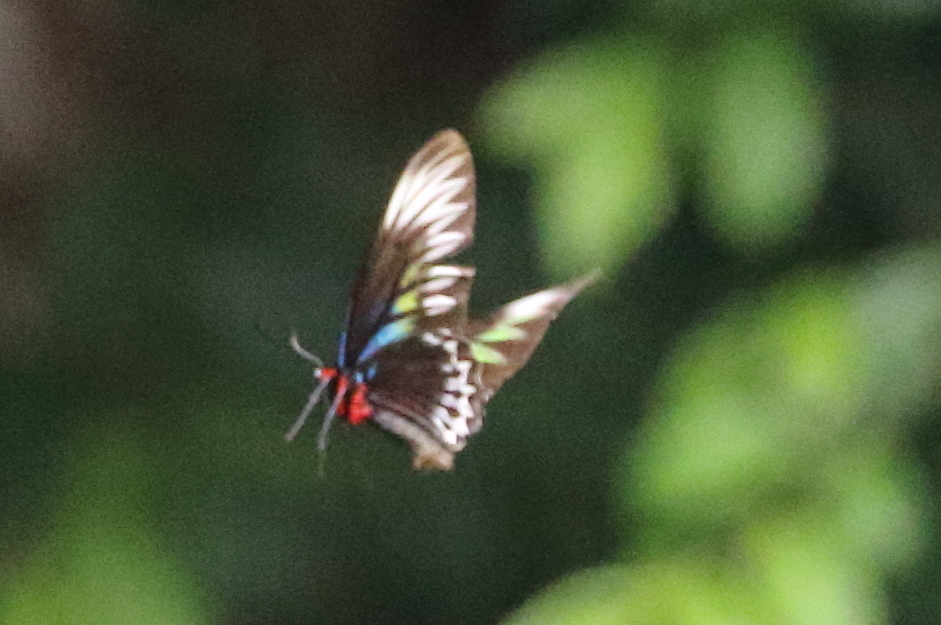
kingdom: Animalia
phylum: Arthropoda
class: Insecta
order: Lepidoptera
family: Papilionidae
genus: Trogonoptera
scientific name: Trogonoptera brookiana
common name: Raja brooke's birdwing
